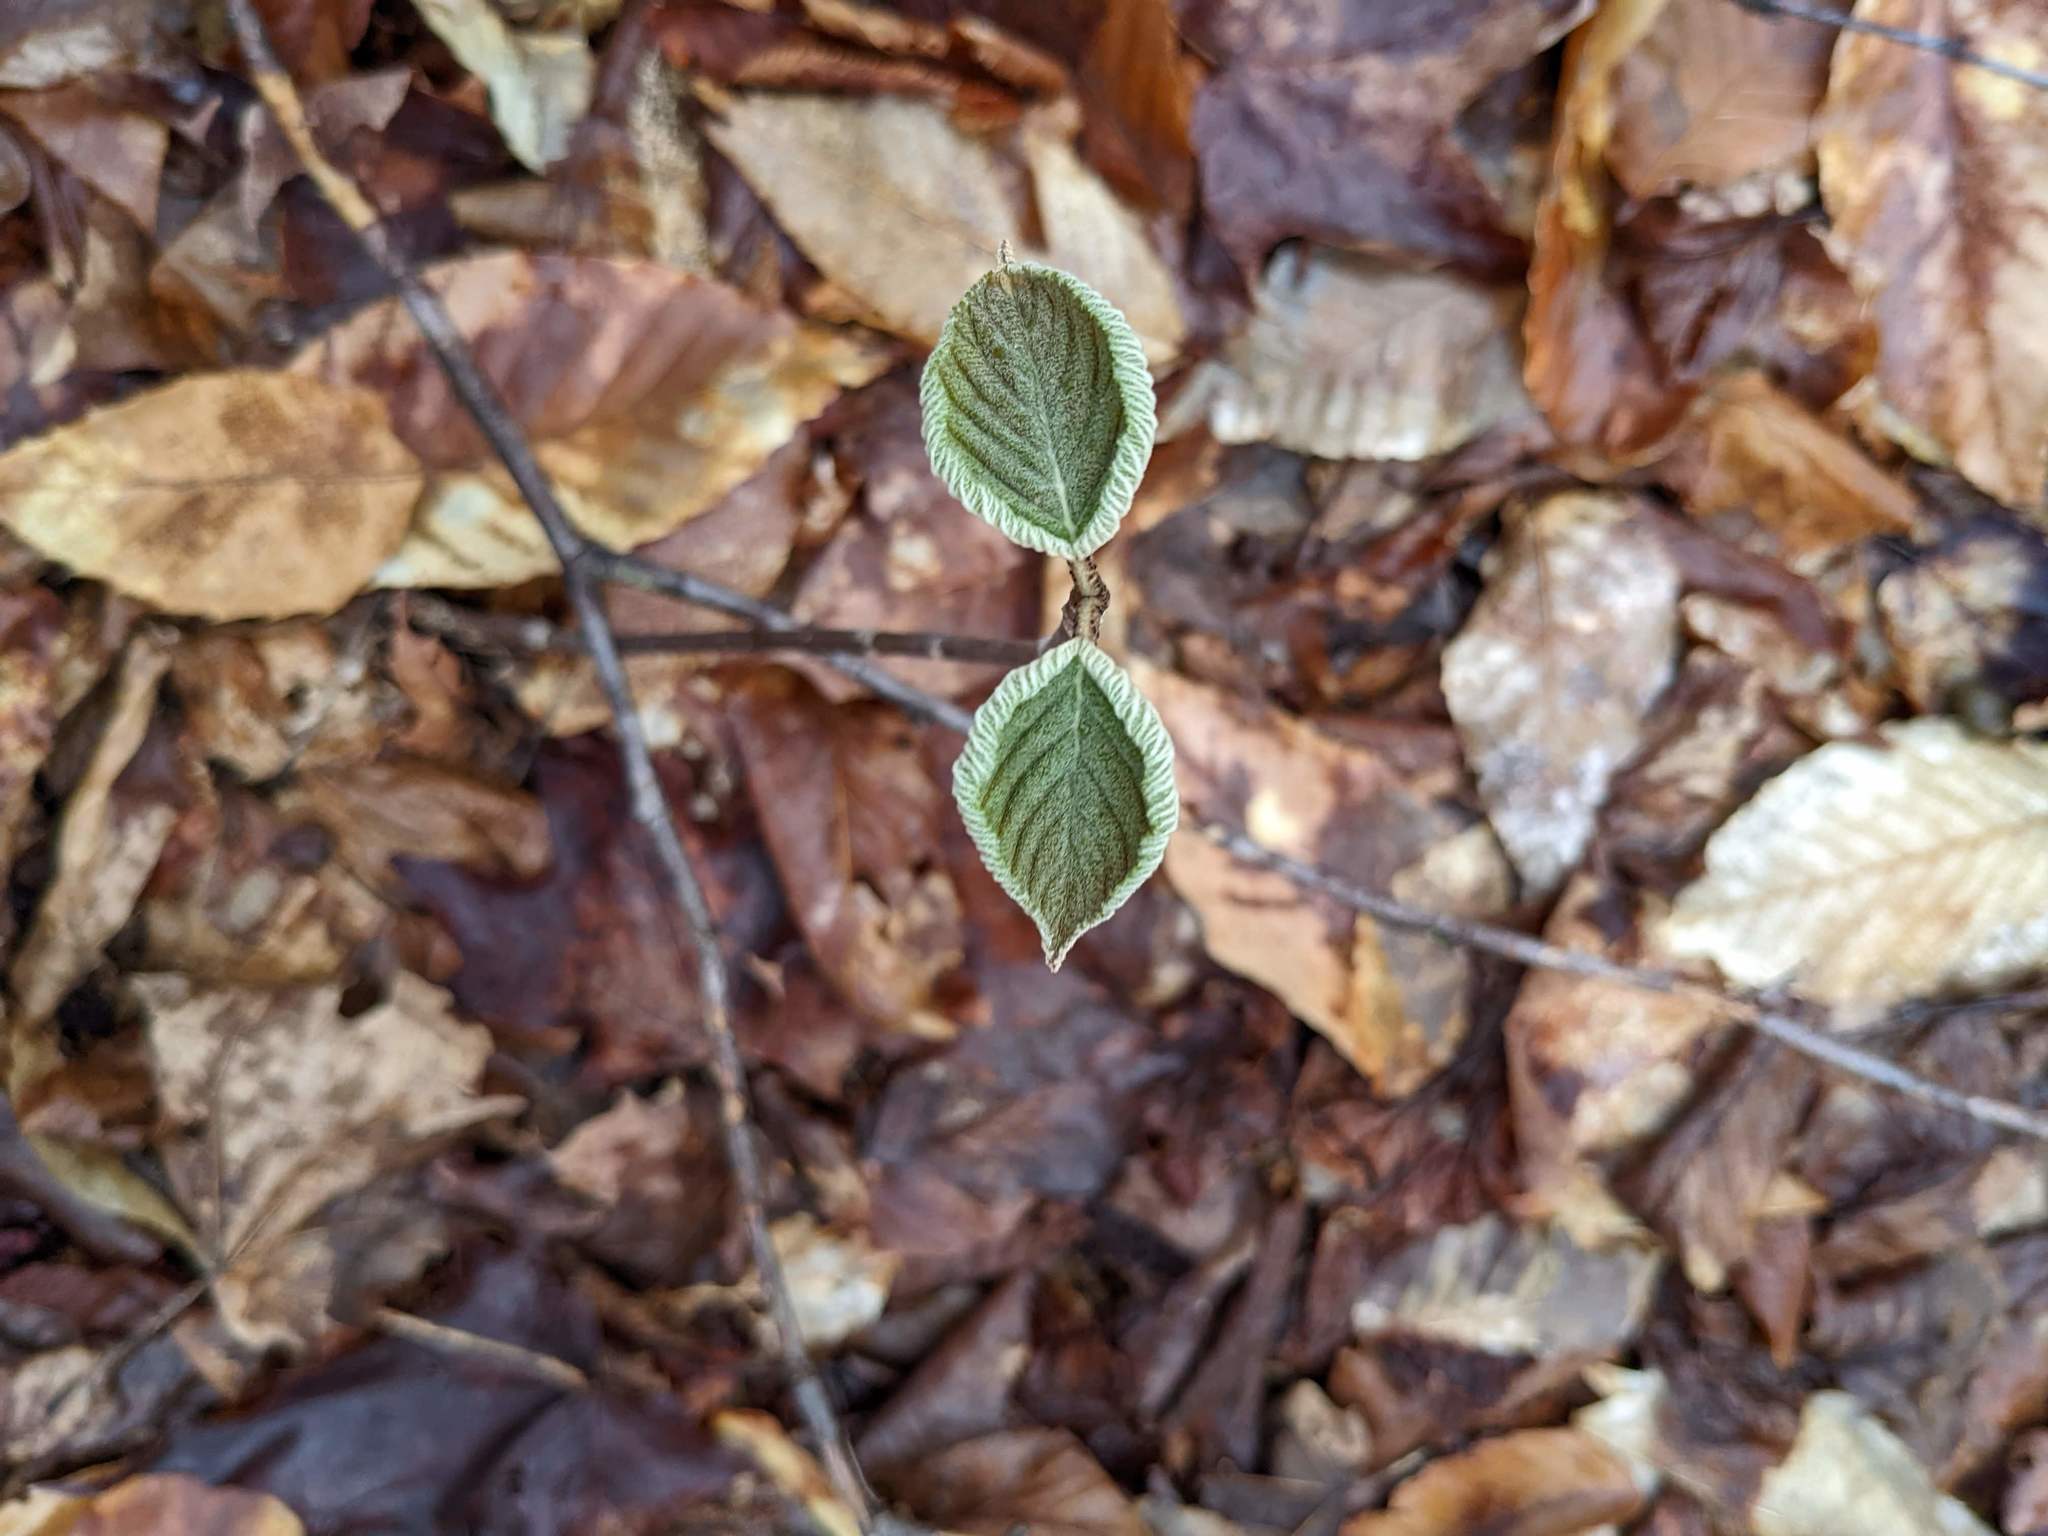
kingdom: Plantae
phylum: Tracheophyta
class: Magnoliopsida
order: Dipsacales
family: Viburnaceae
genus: Viburnum
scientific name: Viburnum lantanoides
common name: Hobblebush
